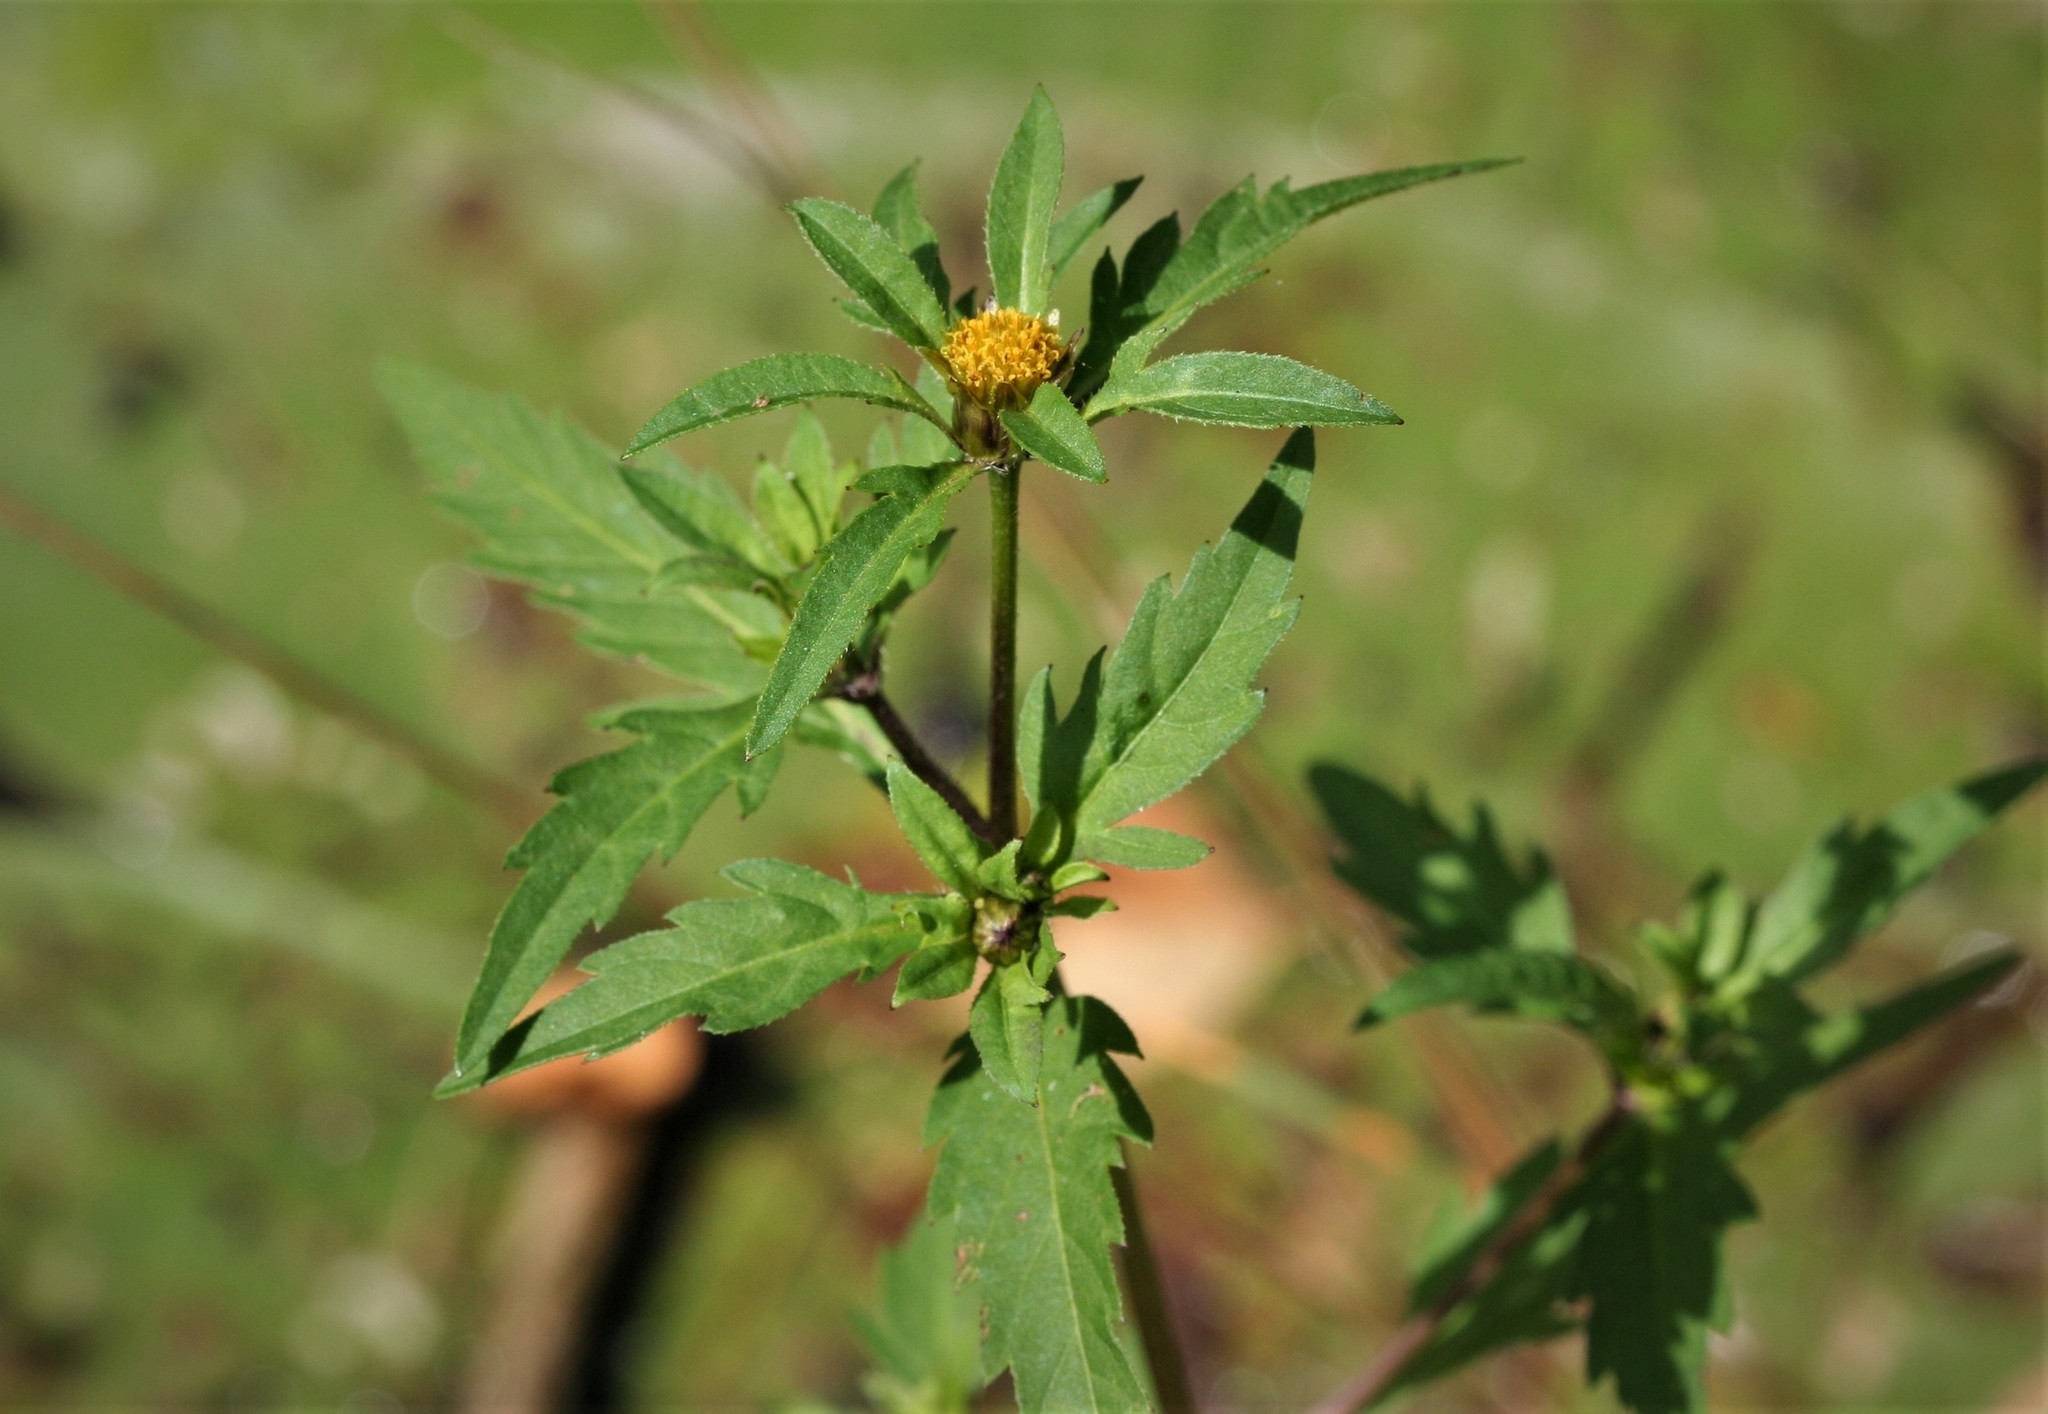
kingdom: Plantae
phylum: Tracheophyta
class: Magnoliopsida
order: Asterales
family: Asteraceae
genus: Bidens
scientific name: Bidens tripartita
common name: Trifid bur-marigold
